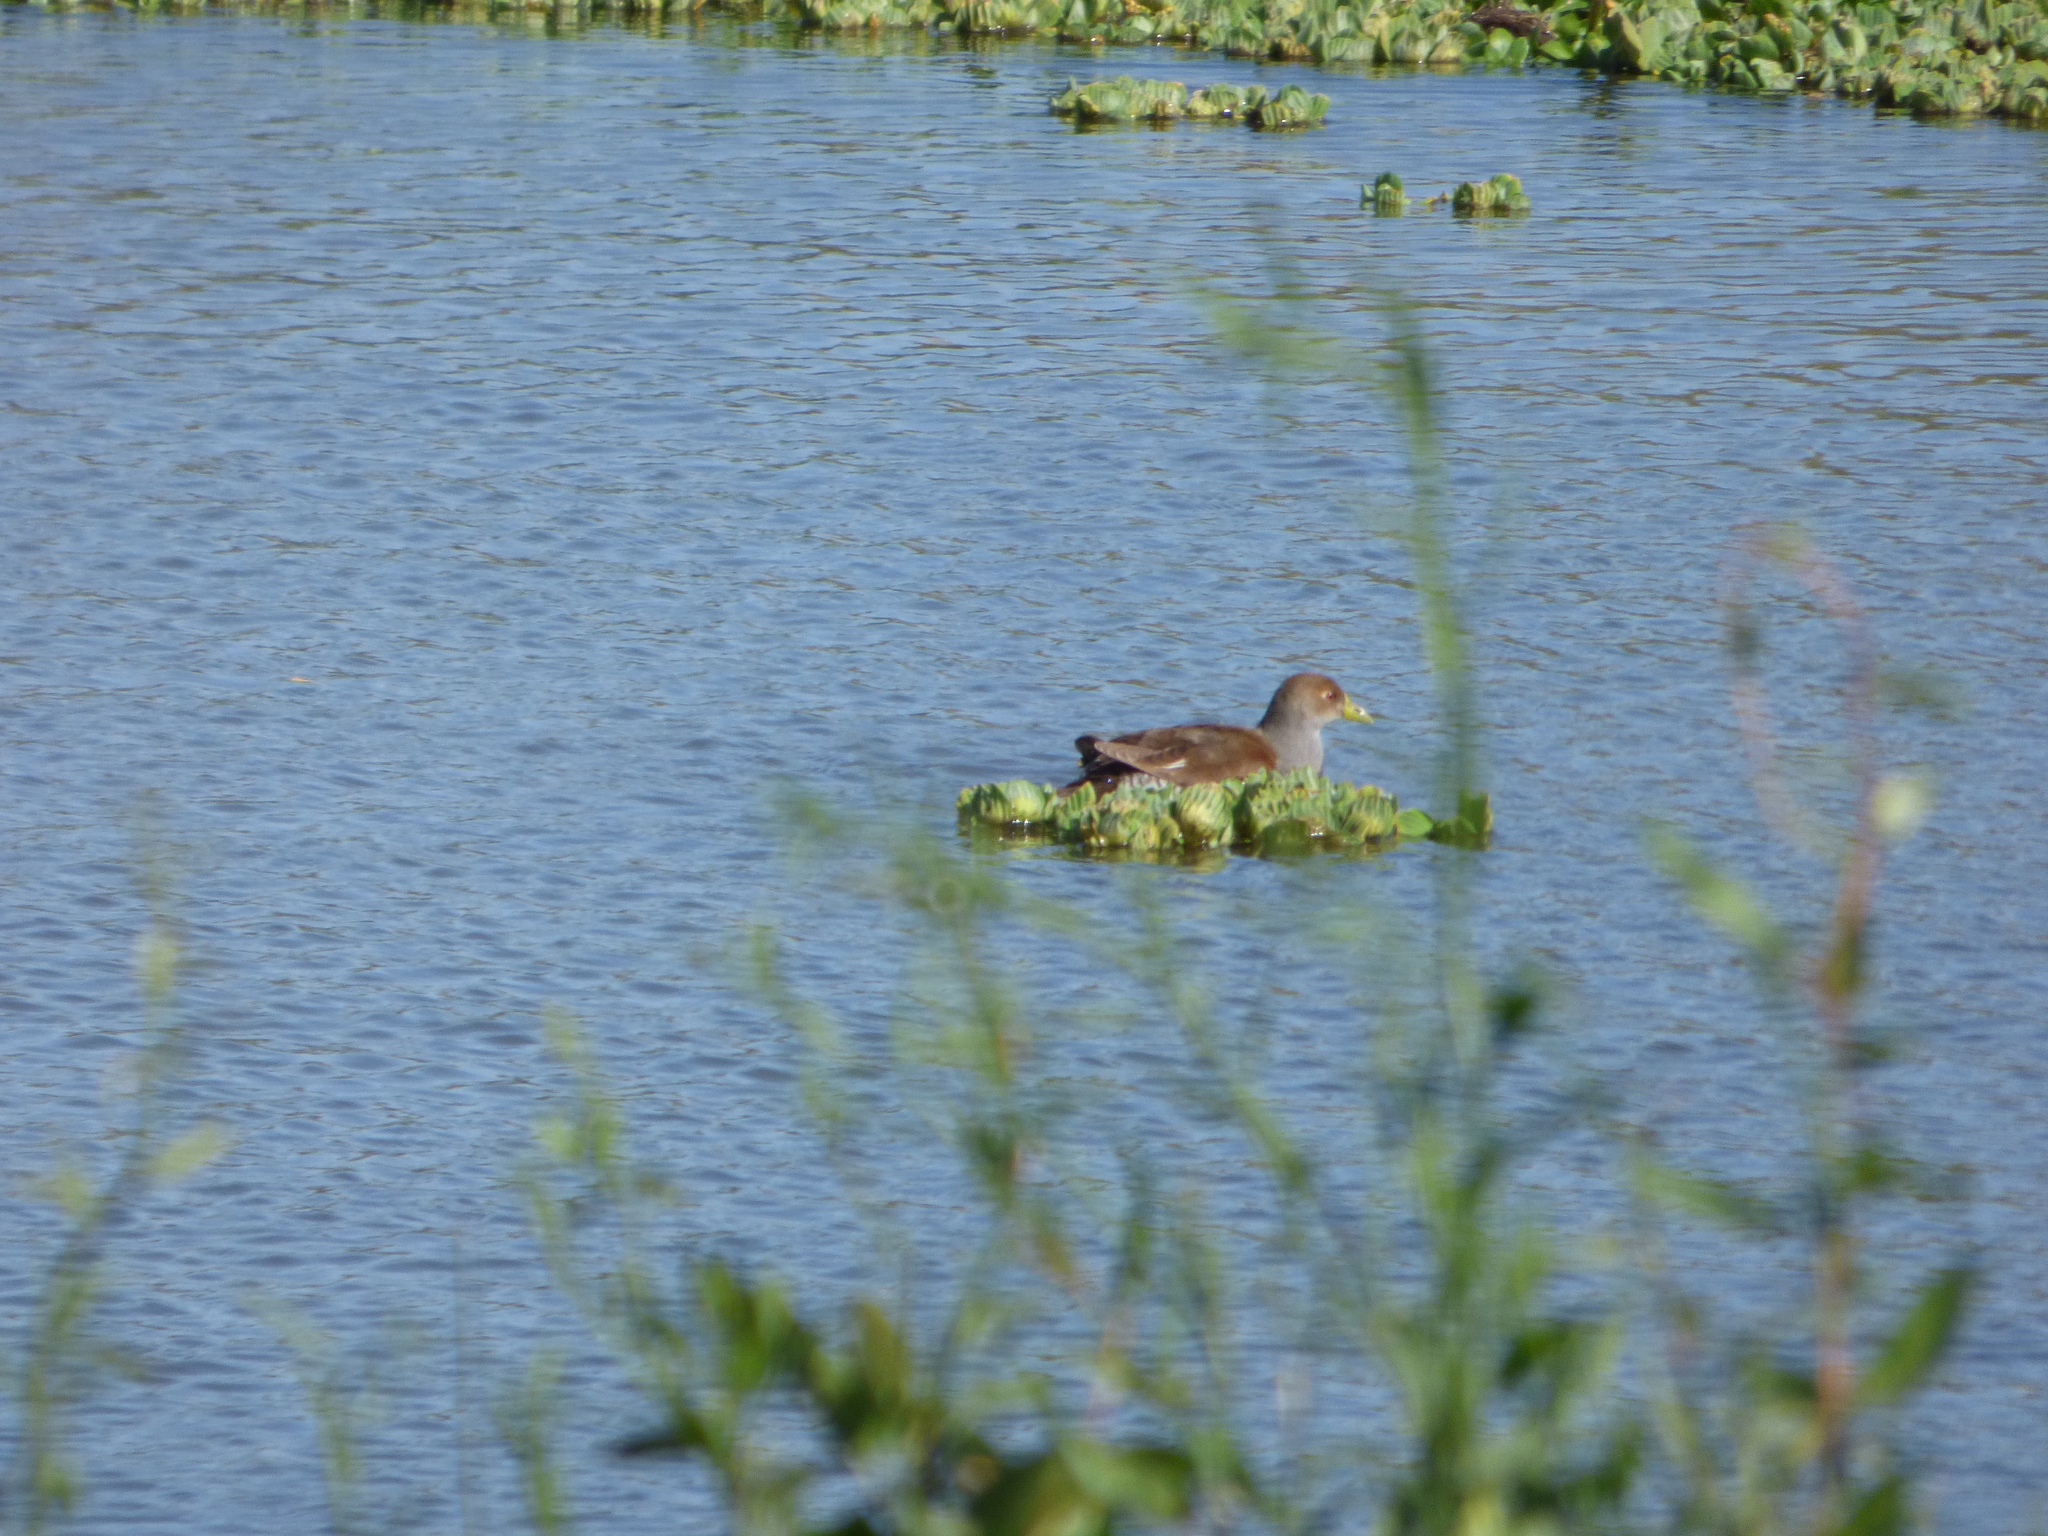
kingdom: Animalia
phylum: Chordata
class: Aves
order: Gruiformes
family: Rallidae
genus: Gallinula
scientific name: Gallinula melanops
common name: Spot-flanked gallinule
